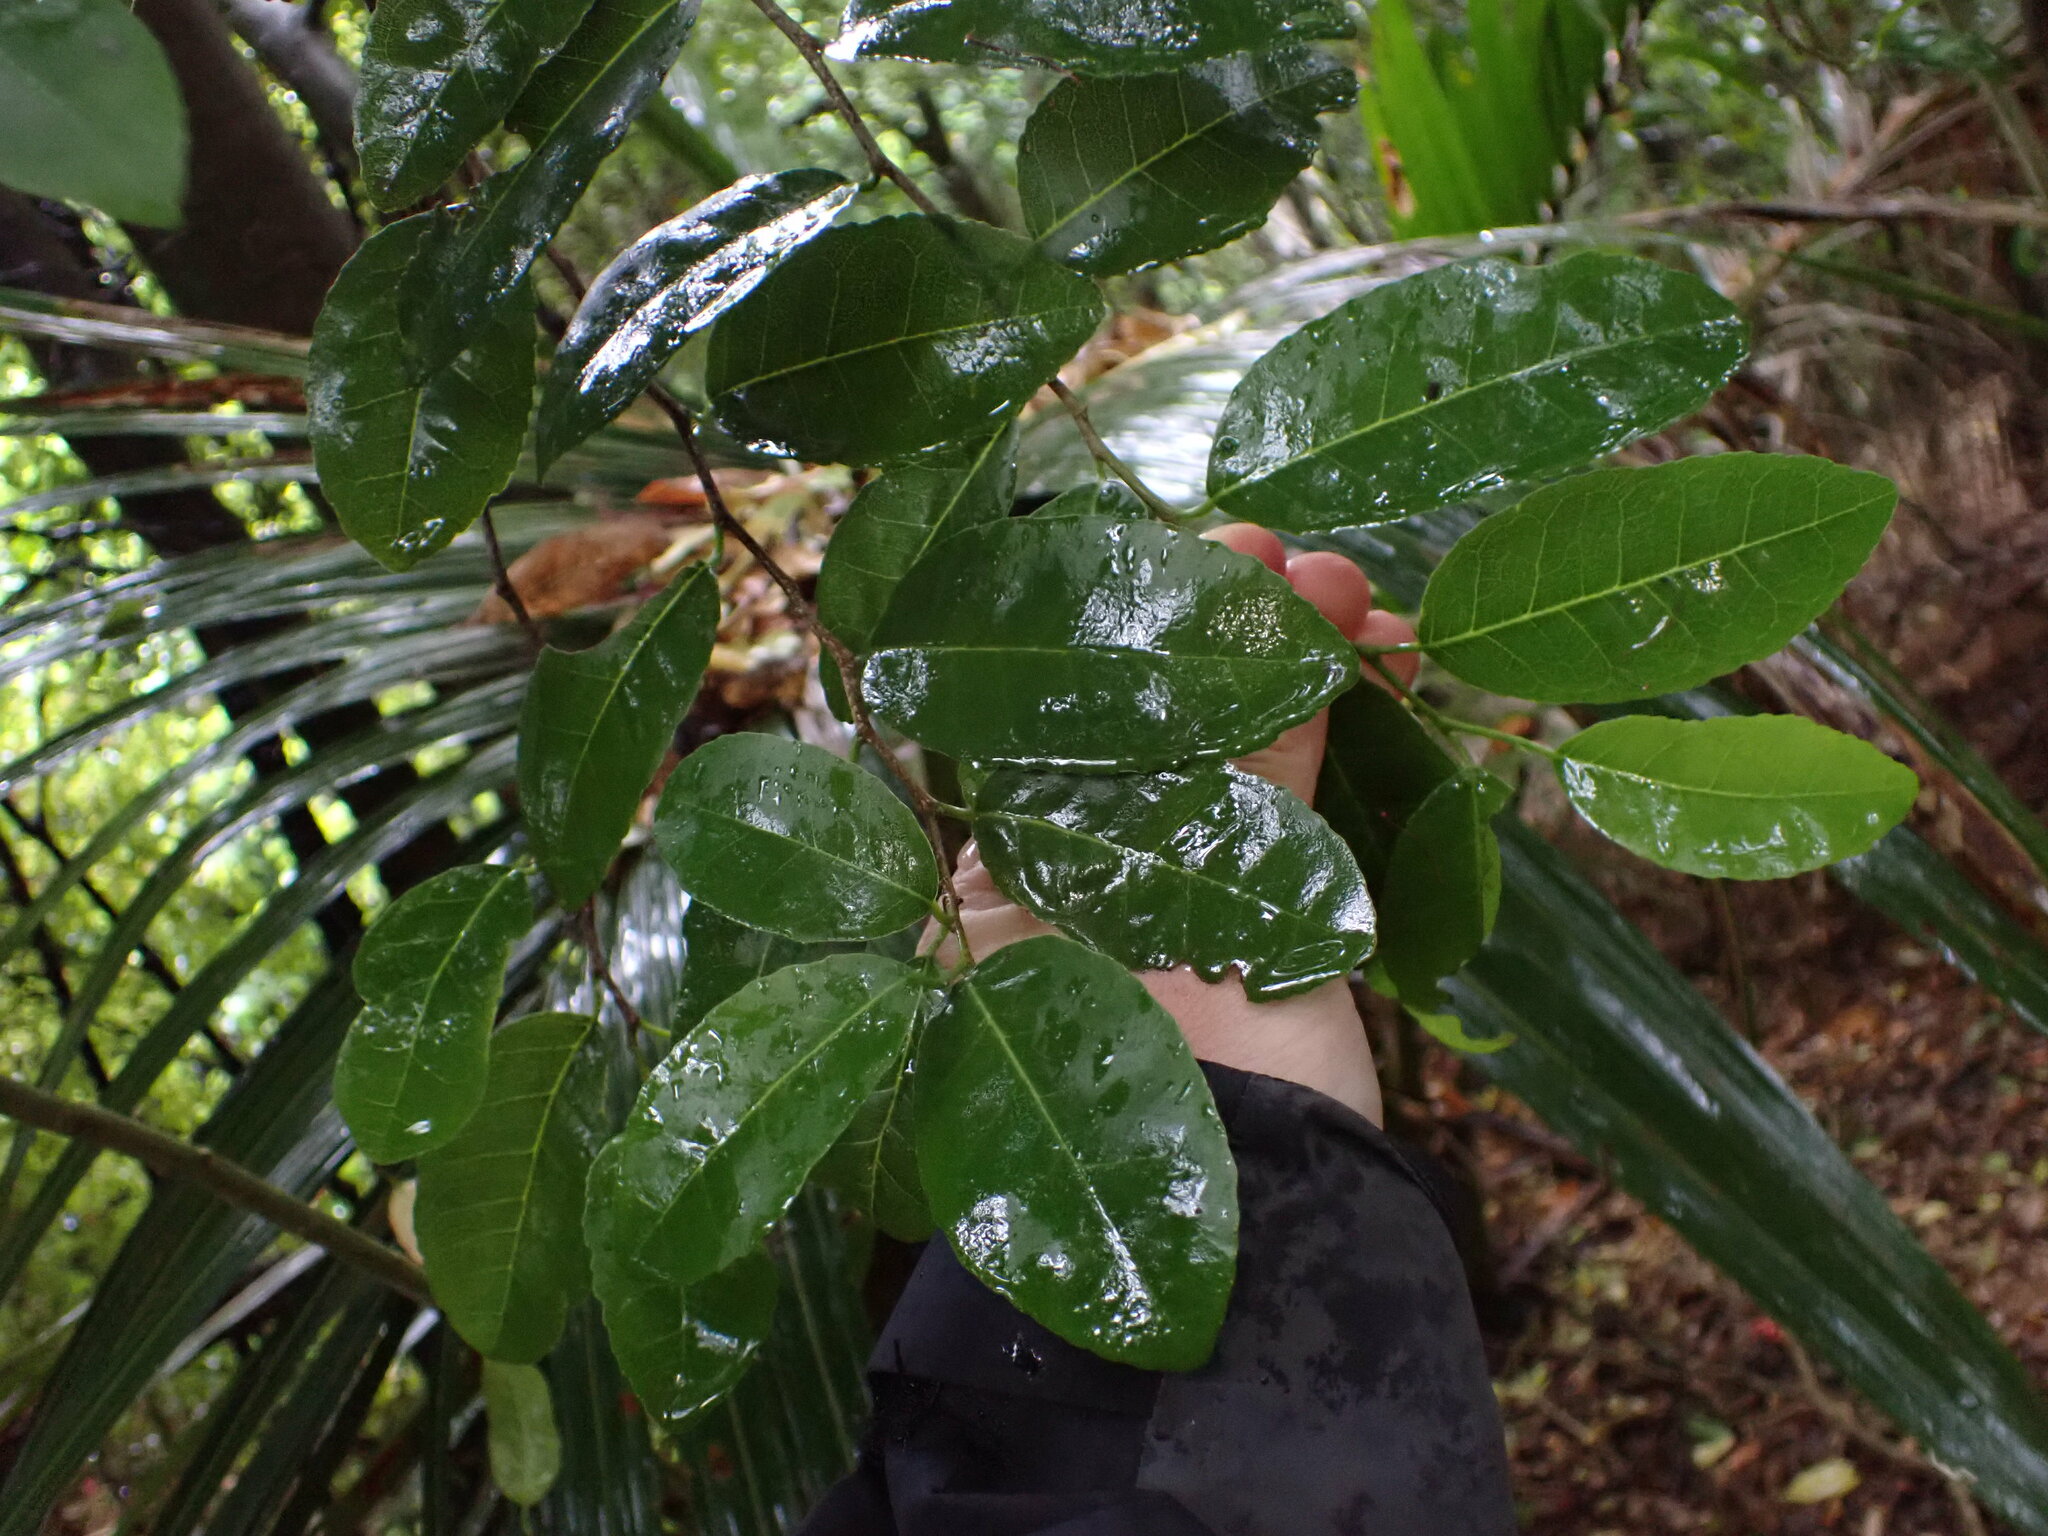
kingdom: Plantae
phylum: Tracheophyta
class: Magnoliopsida
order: Rosales
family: Moraceae
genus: Paratrophis
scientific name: Paratrophis banksii
